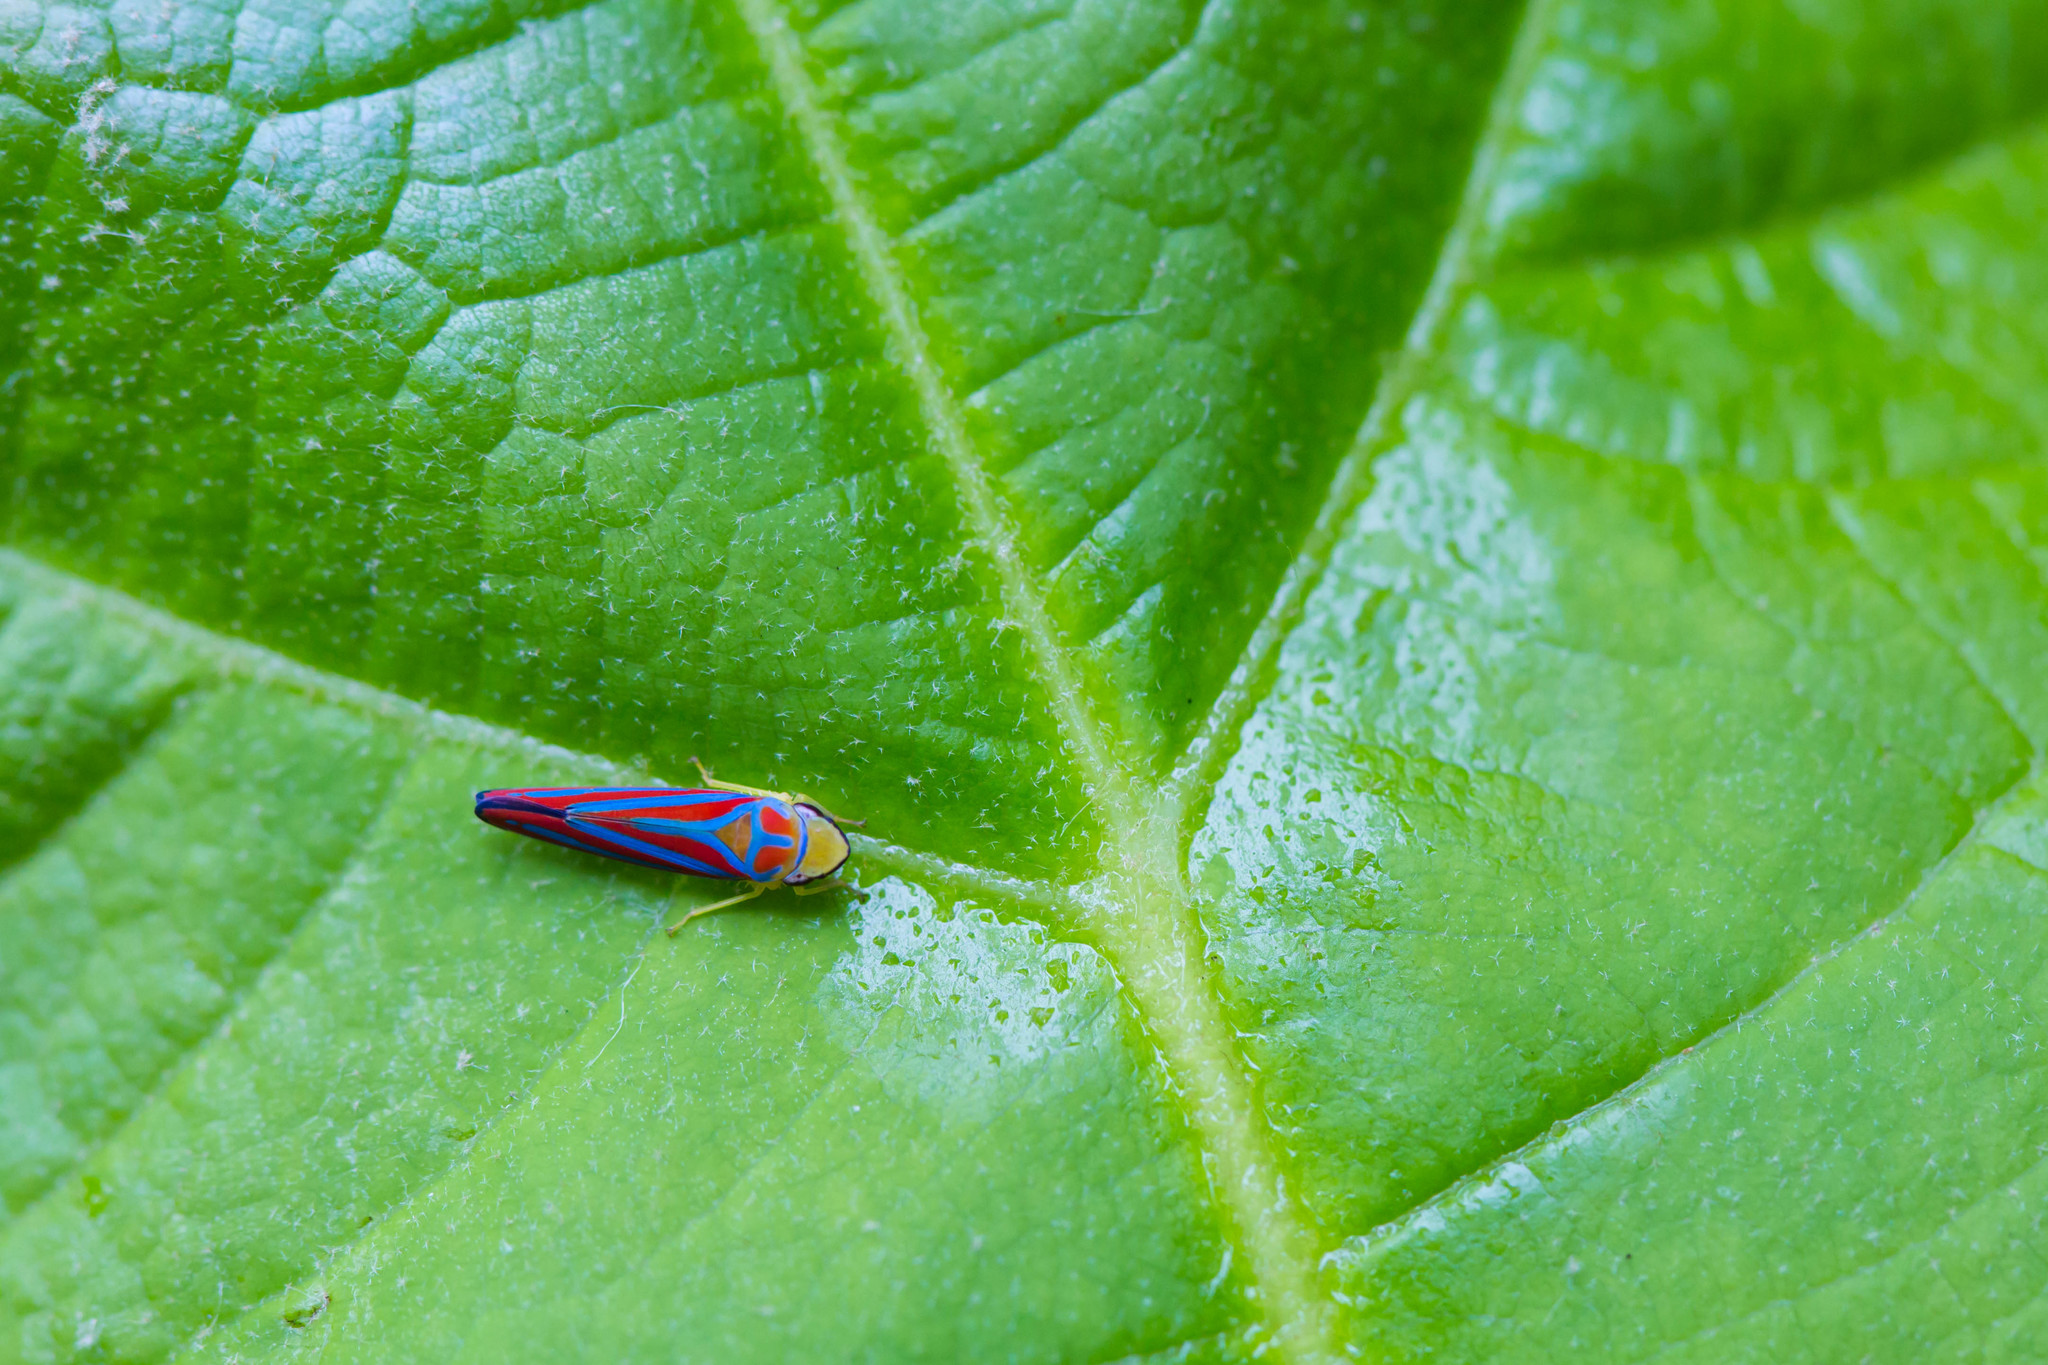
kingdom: Animalia
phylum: Arthropoda
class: Insecta
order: Hemiptera
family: Cicadellidae
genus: Graphocephala
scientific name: Graphocephala coccinea
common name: Candy-striped leafhopper
